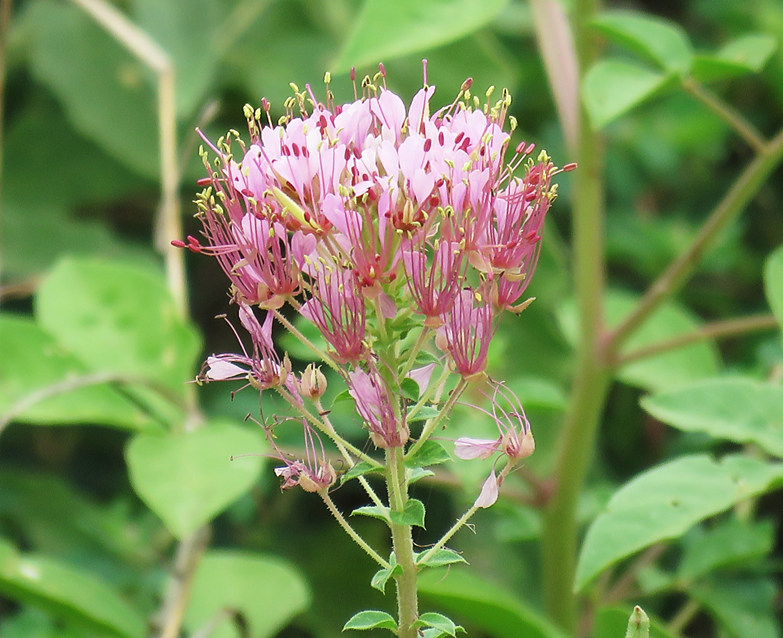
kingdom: Plantae
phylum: Tracheophyta
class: Magnoliopsida
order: Brassicales
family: Cleomaceae
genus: Polanisia
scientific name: Polanisia dodecandra
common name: Clammyweed
